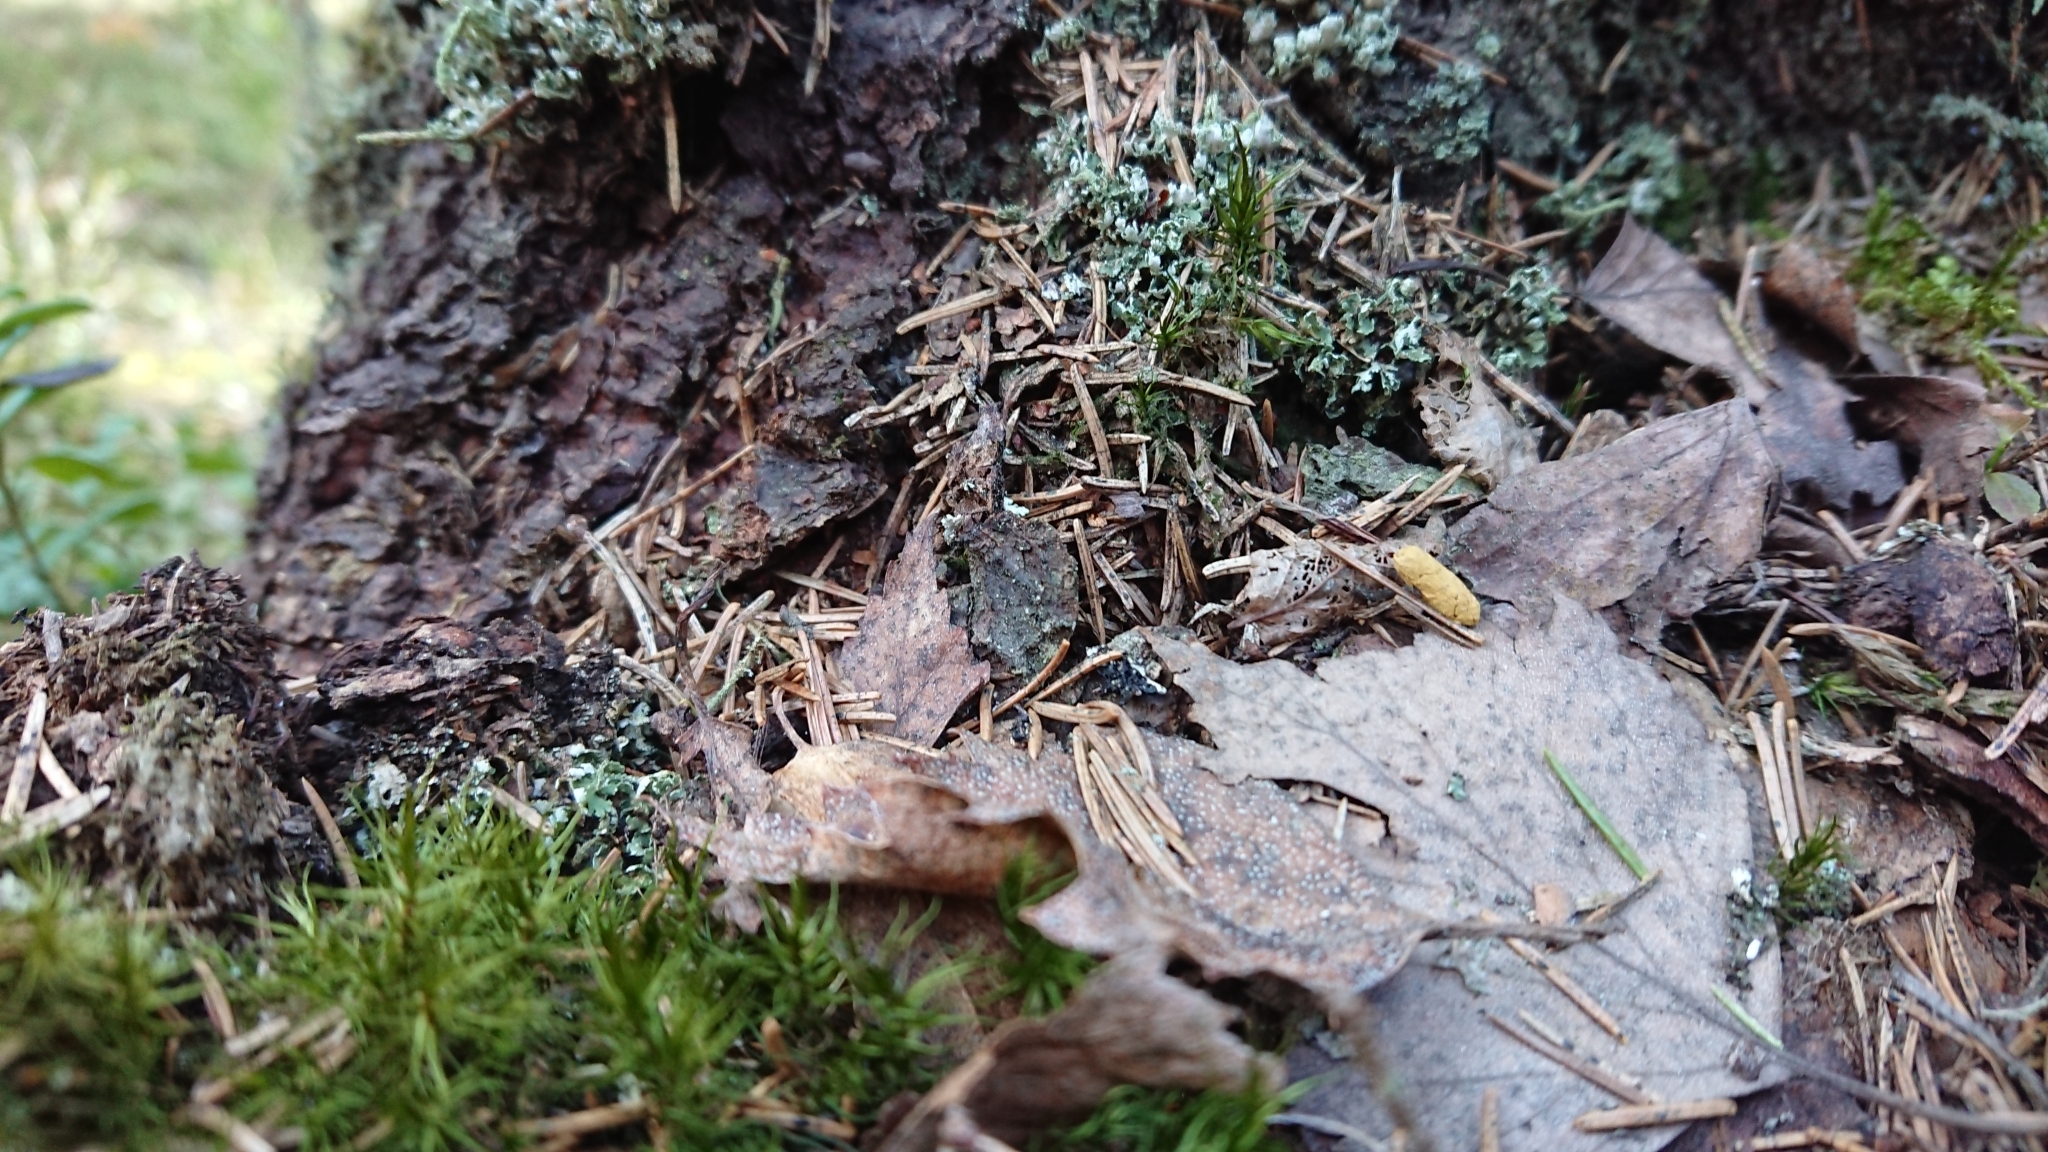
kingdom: Animalia
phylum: Chordata
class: Mammalia
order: Rodentia
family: Sciuridae
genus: Pteromys
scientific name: Pteromys volans
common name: Siberian flying squirrel
